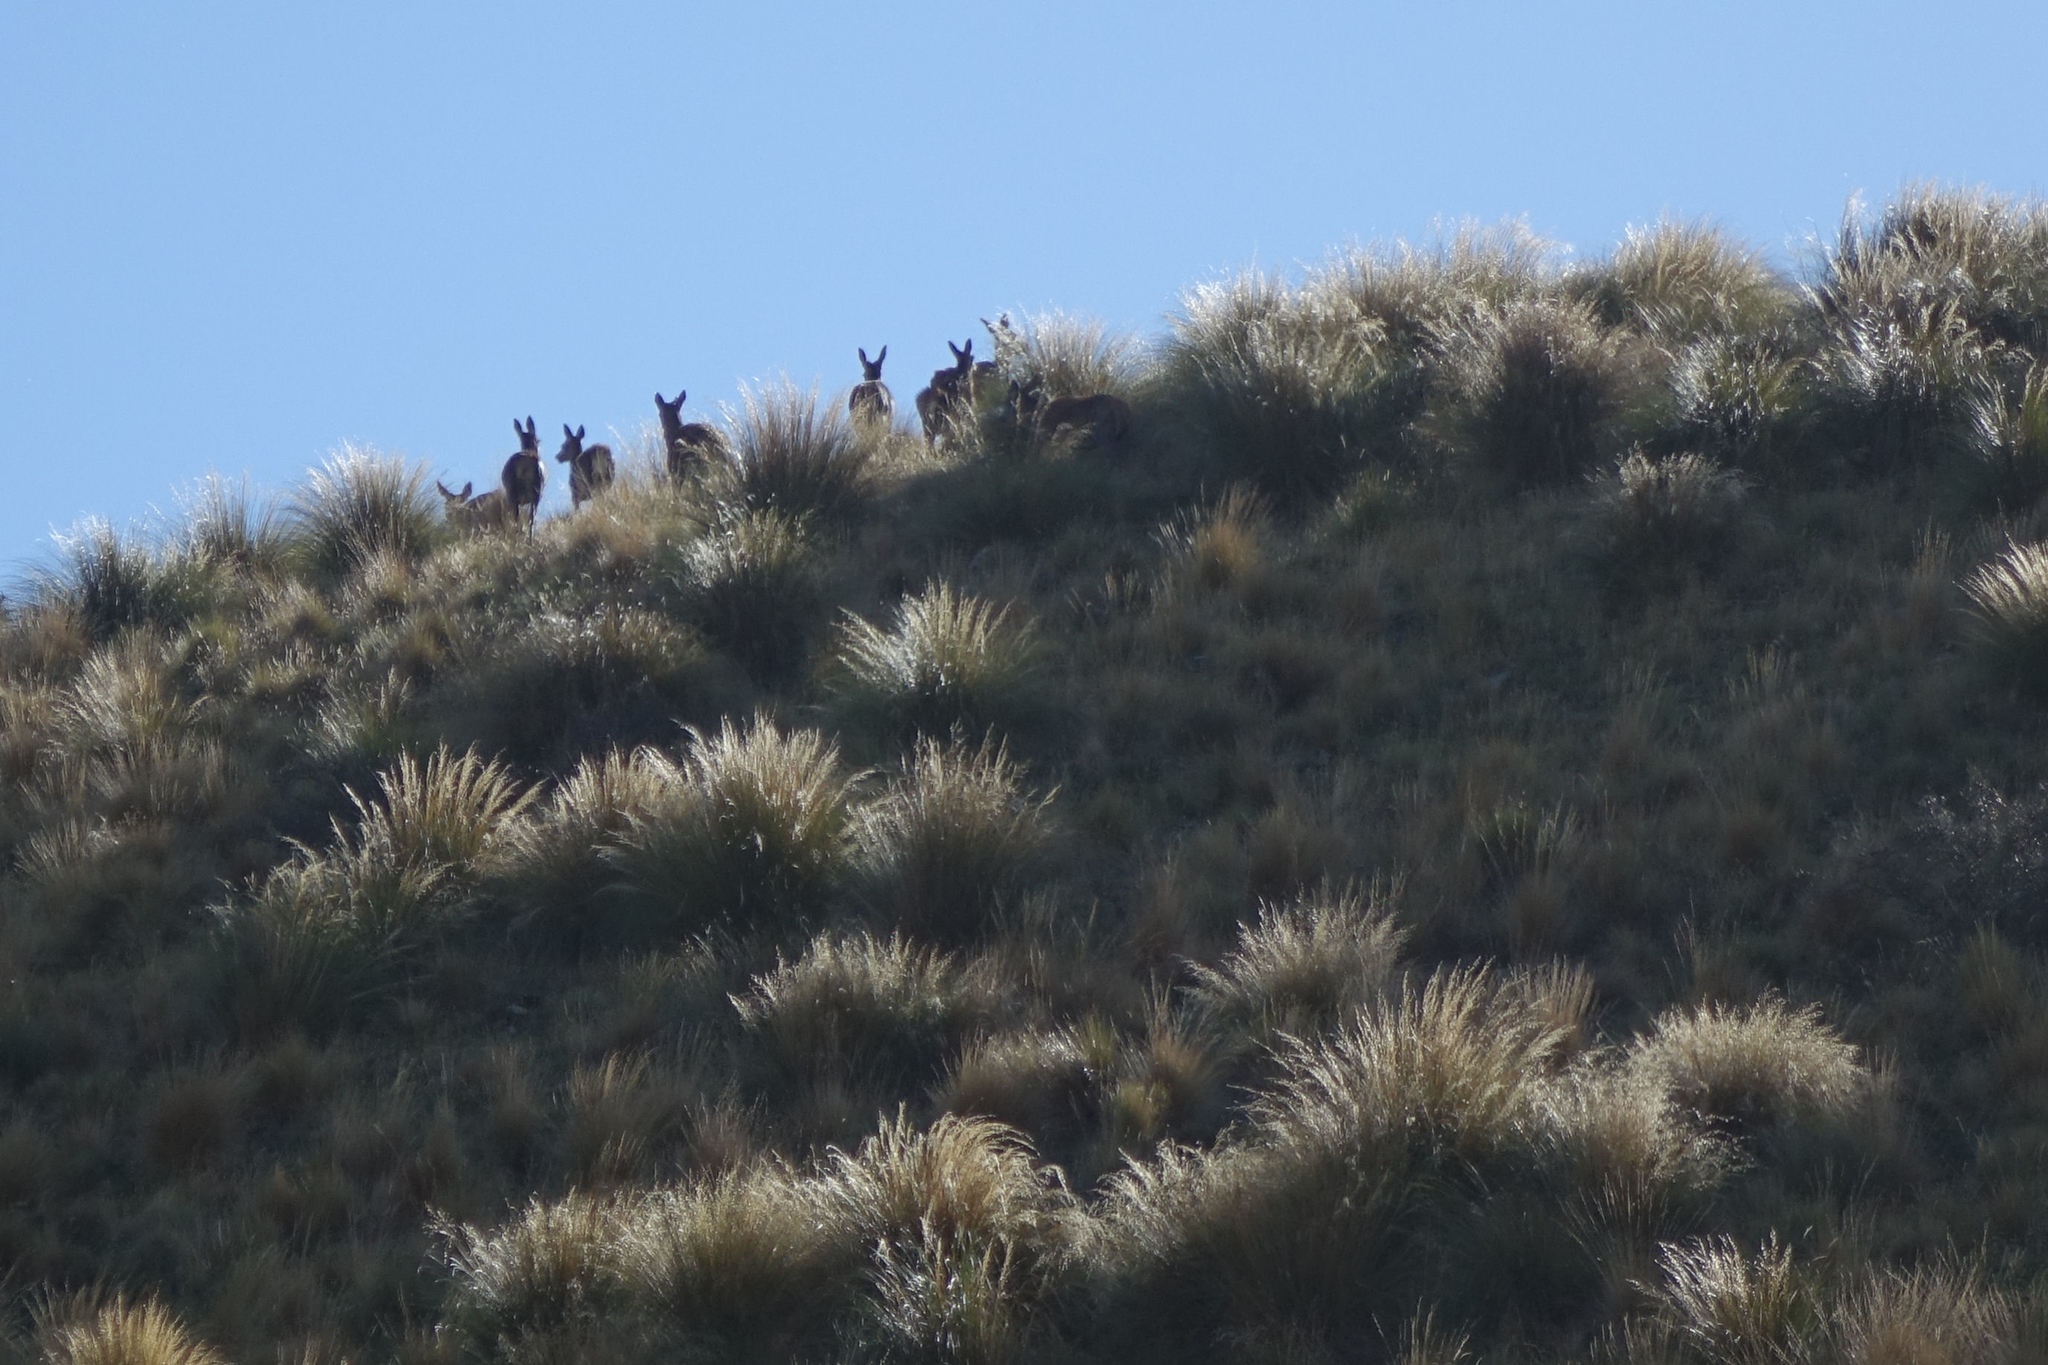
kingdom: Animalia
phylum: Chordata
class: Mammalia
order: Artiodactyla
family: Cervidae
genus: Cervus
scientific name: Cervus elaphus
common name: Red deer
